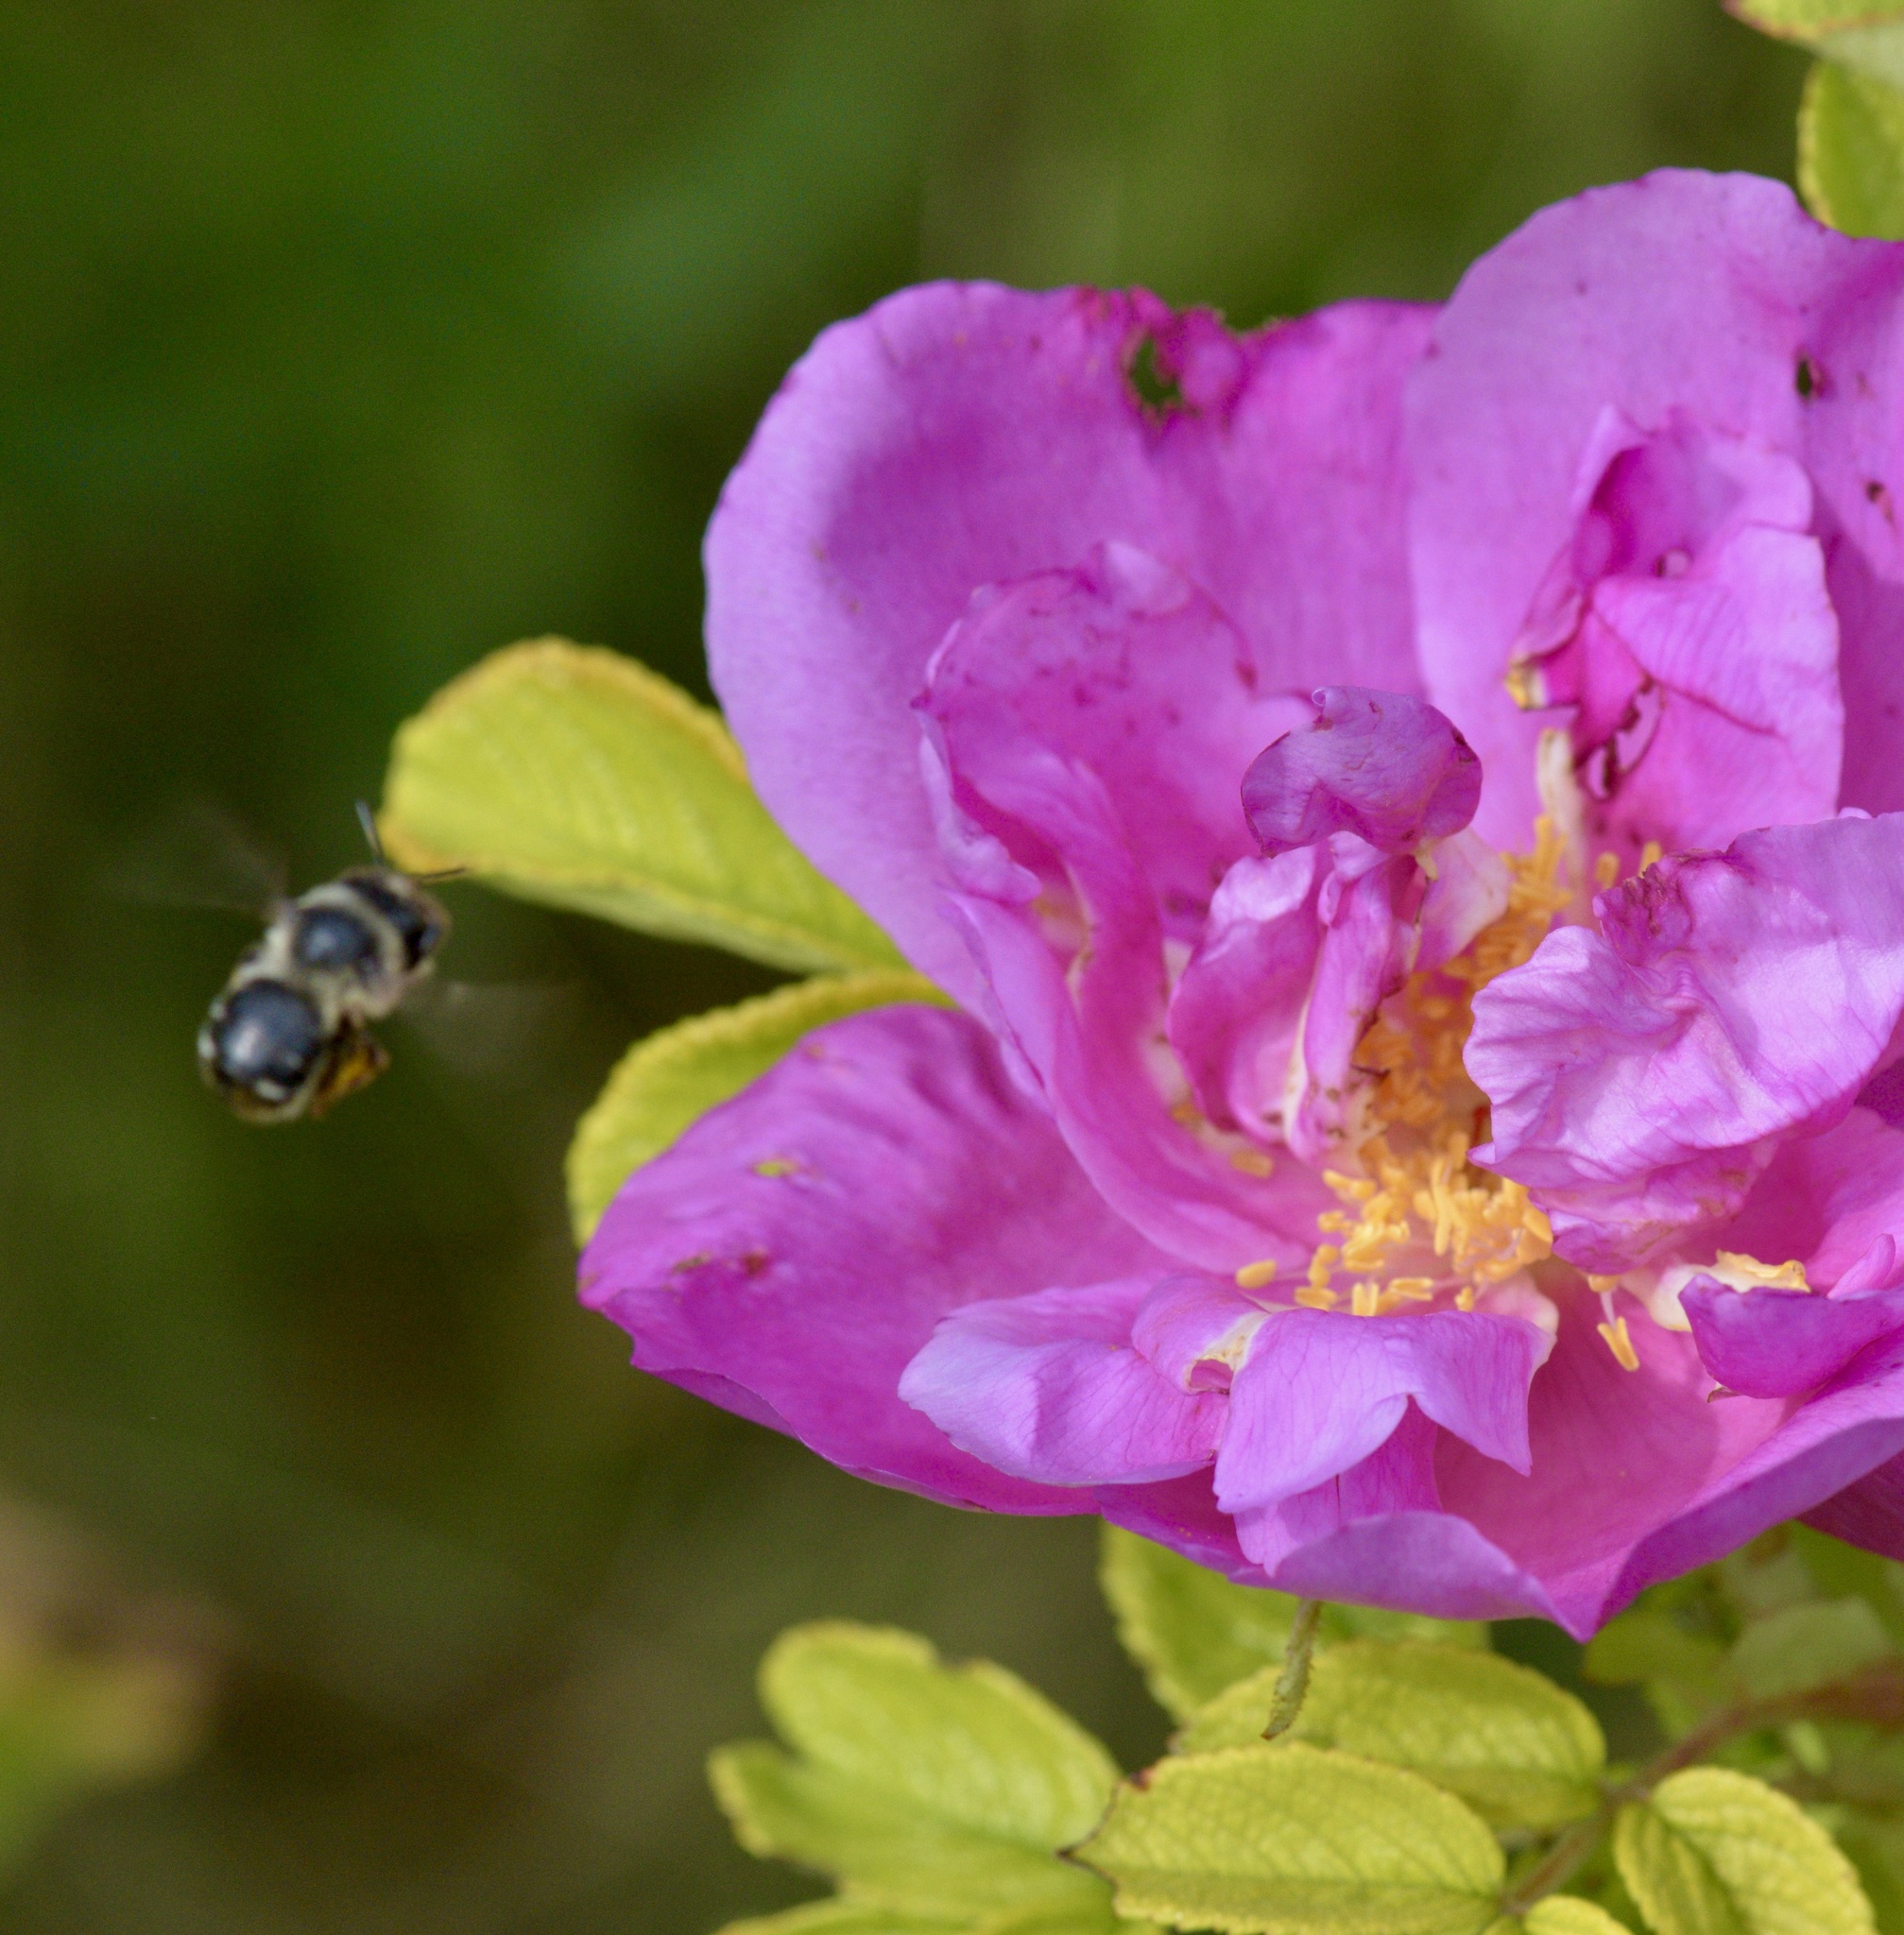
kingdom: Animalia
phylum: Arthropoda
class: Insecta
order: Hymenoptera
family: Apidae
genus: Anthophora
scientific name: Anthophora terminalis
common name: Orange-tipped wood-digger bee
